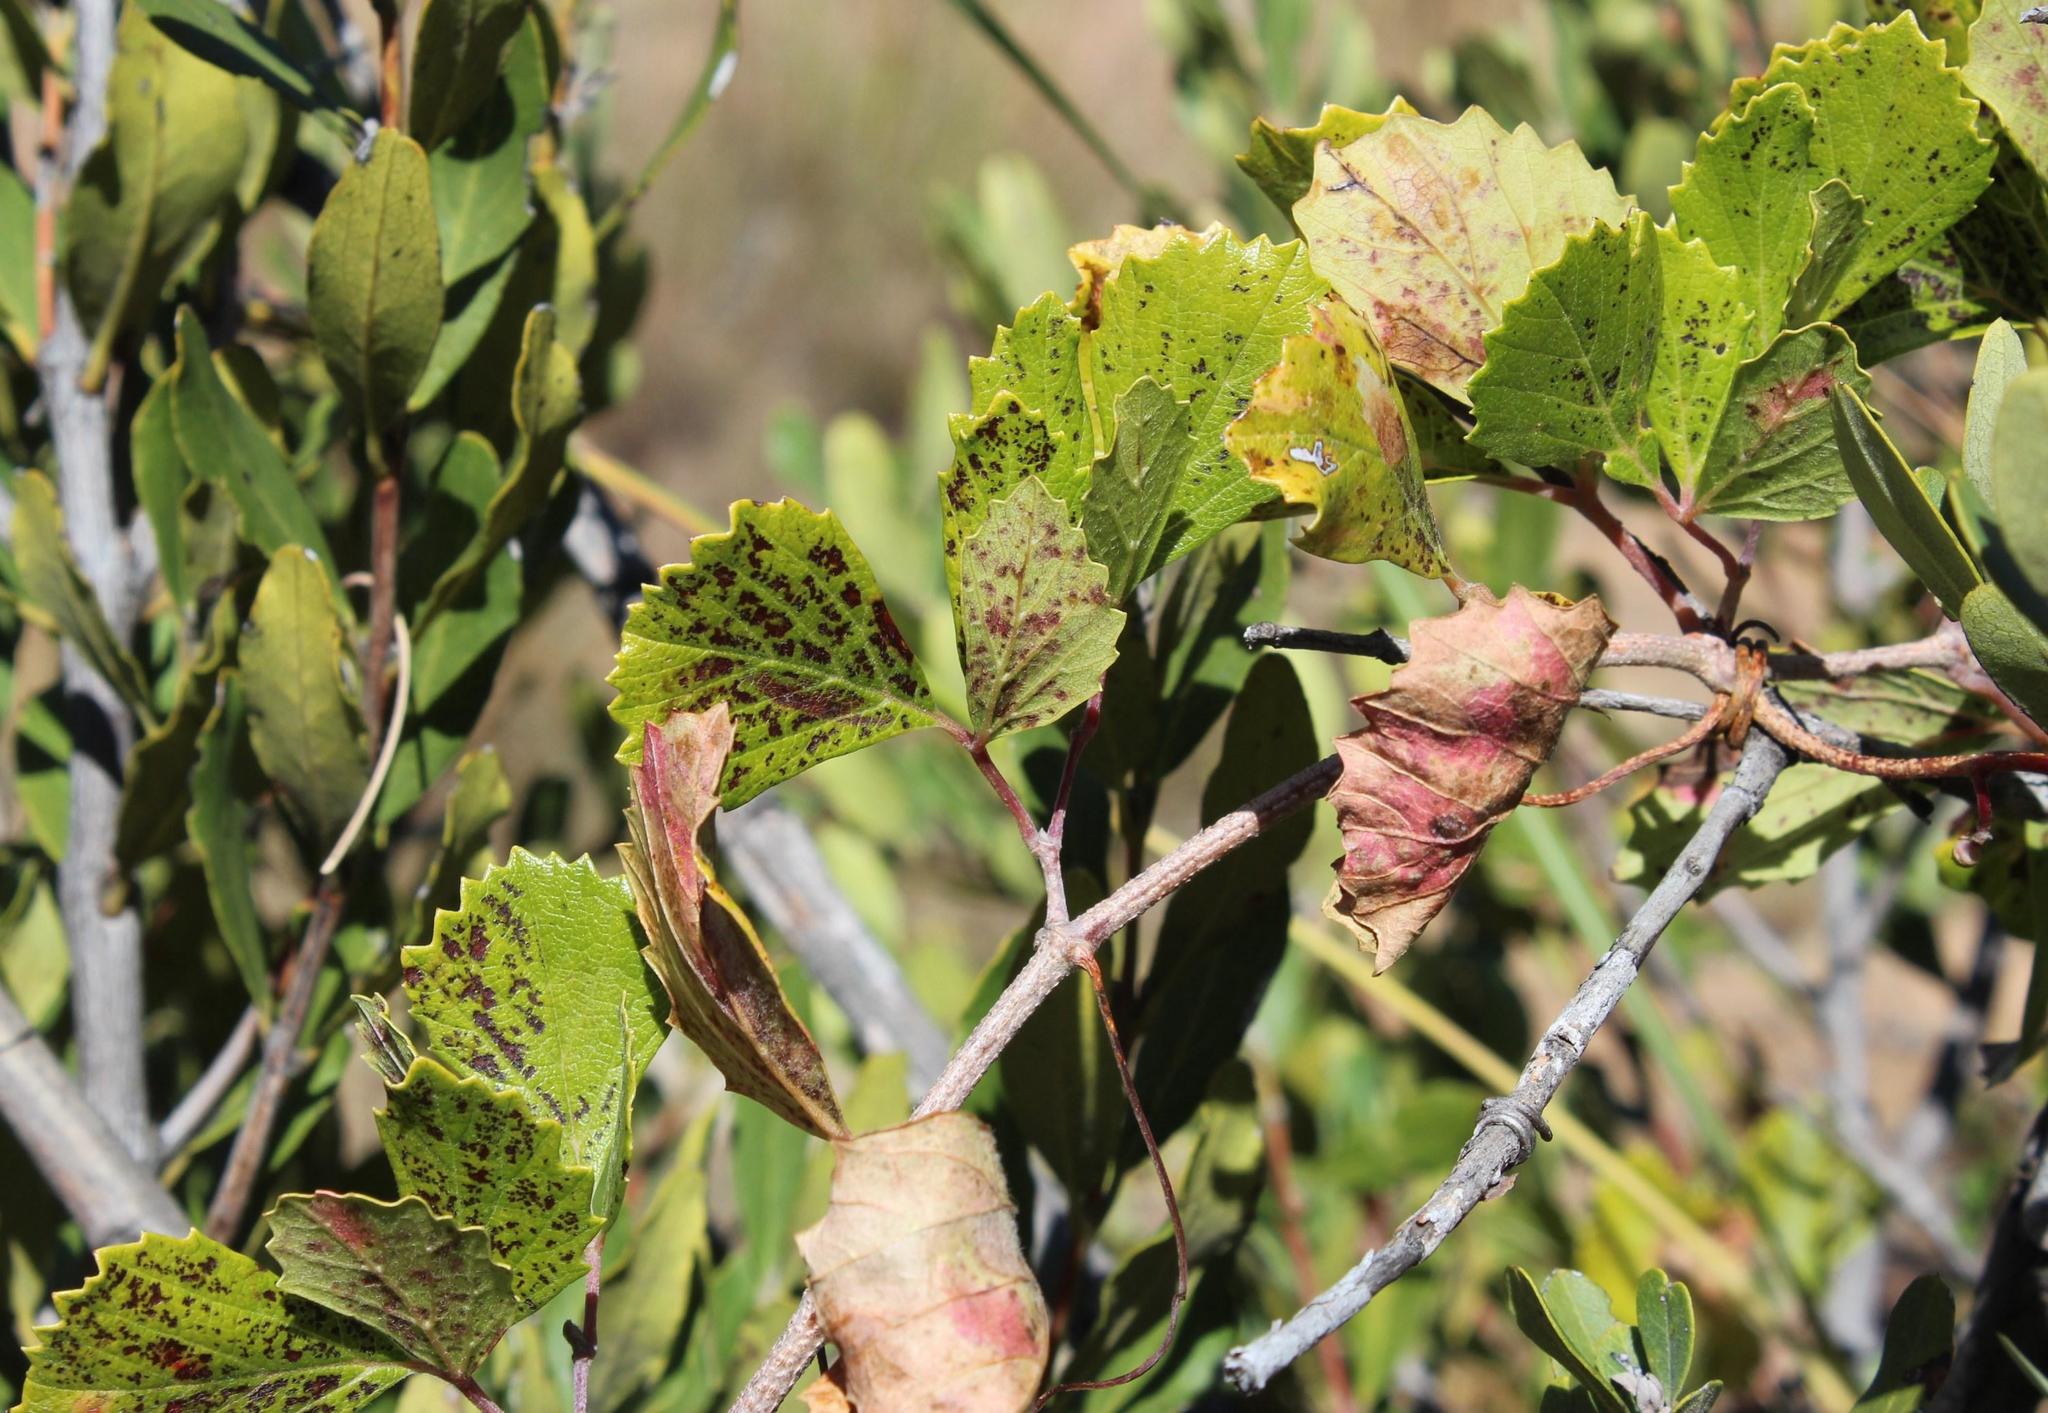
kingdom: Plantae
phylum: Tracheophyta
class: Magnoliopsida
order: Vitales
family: Vitaceae
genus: Rhoicissus
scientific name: Rhoicissus tridentata
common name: Common forest grape
